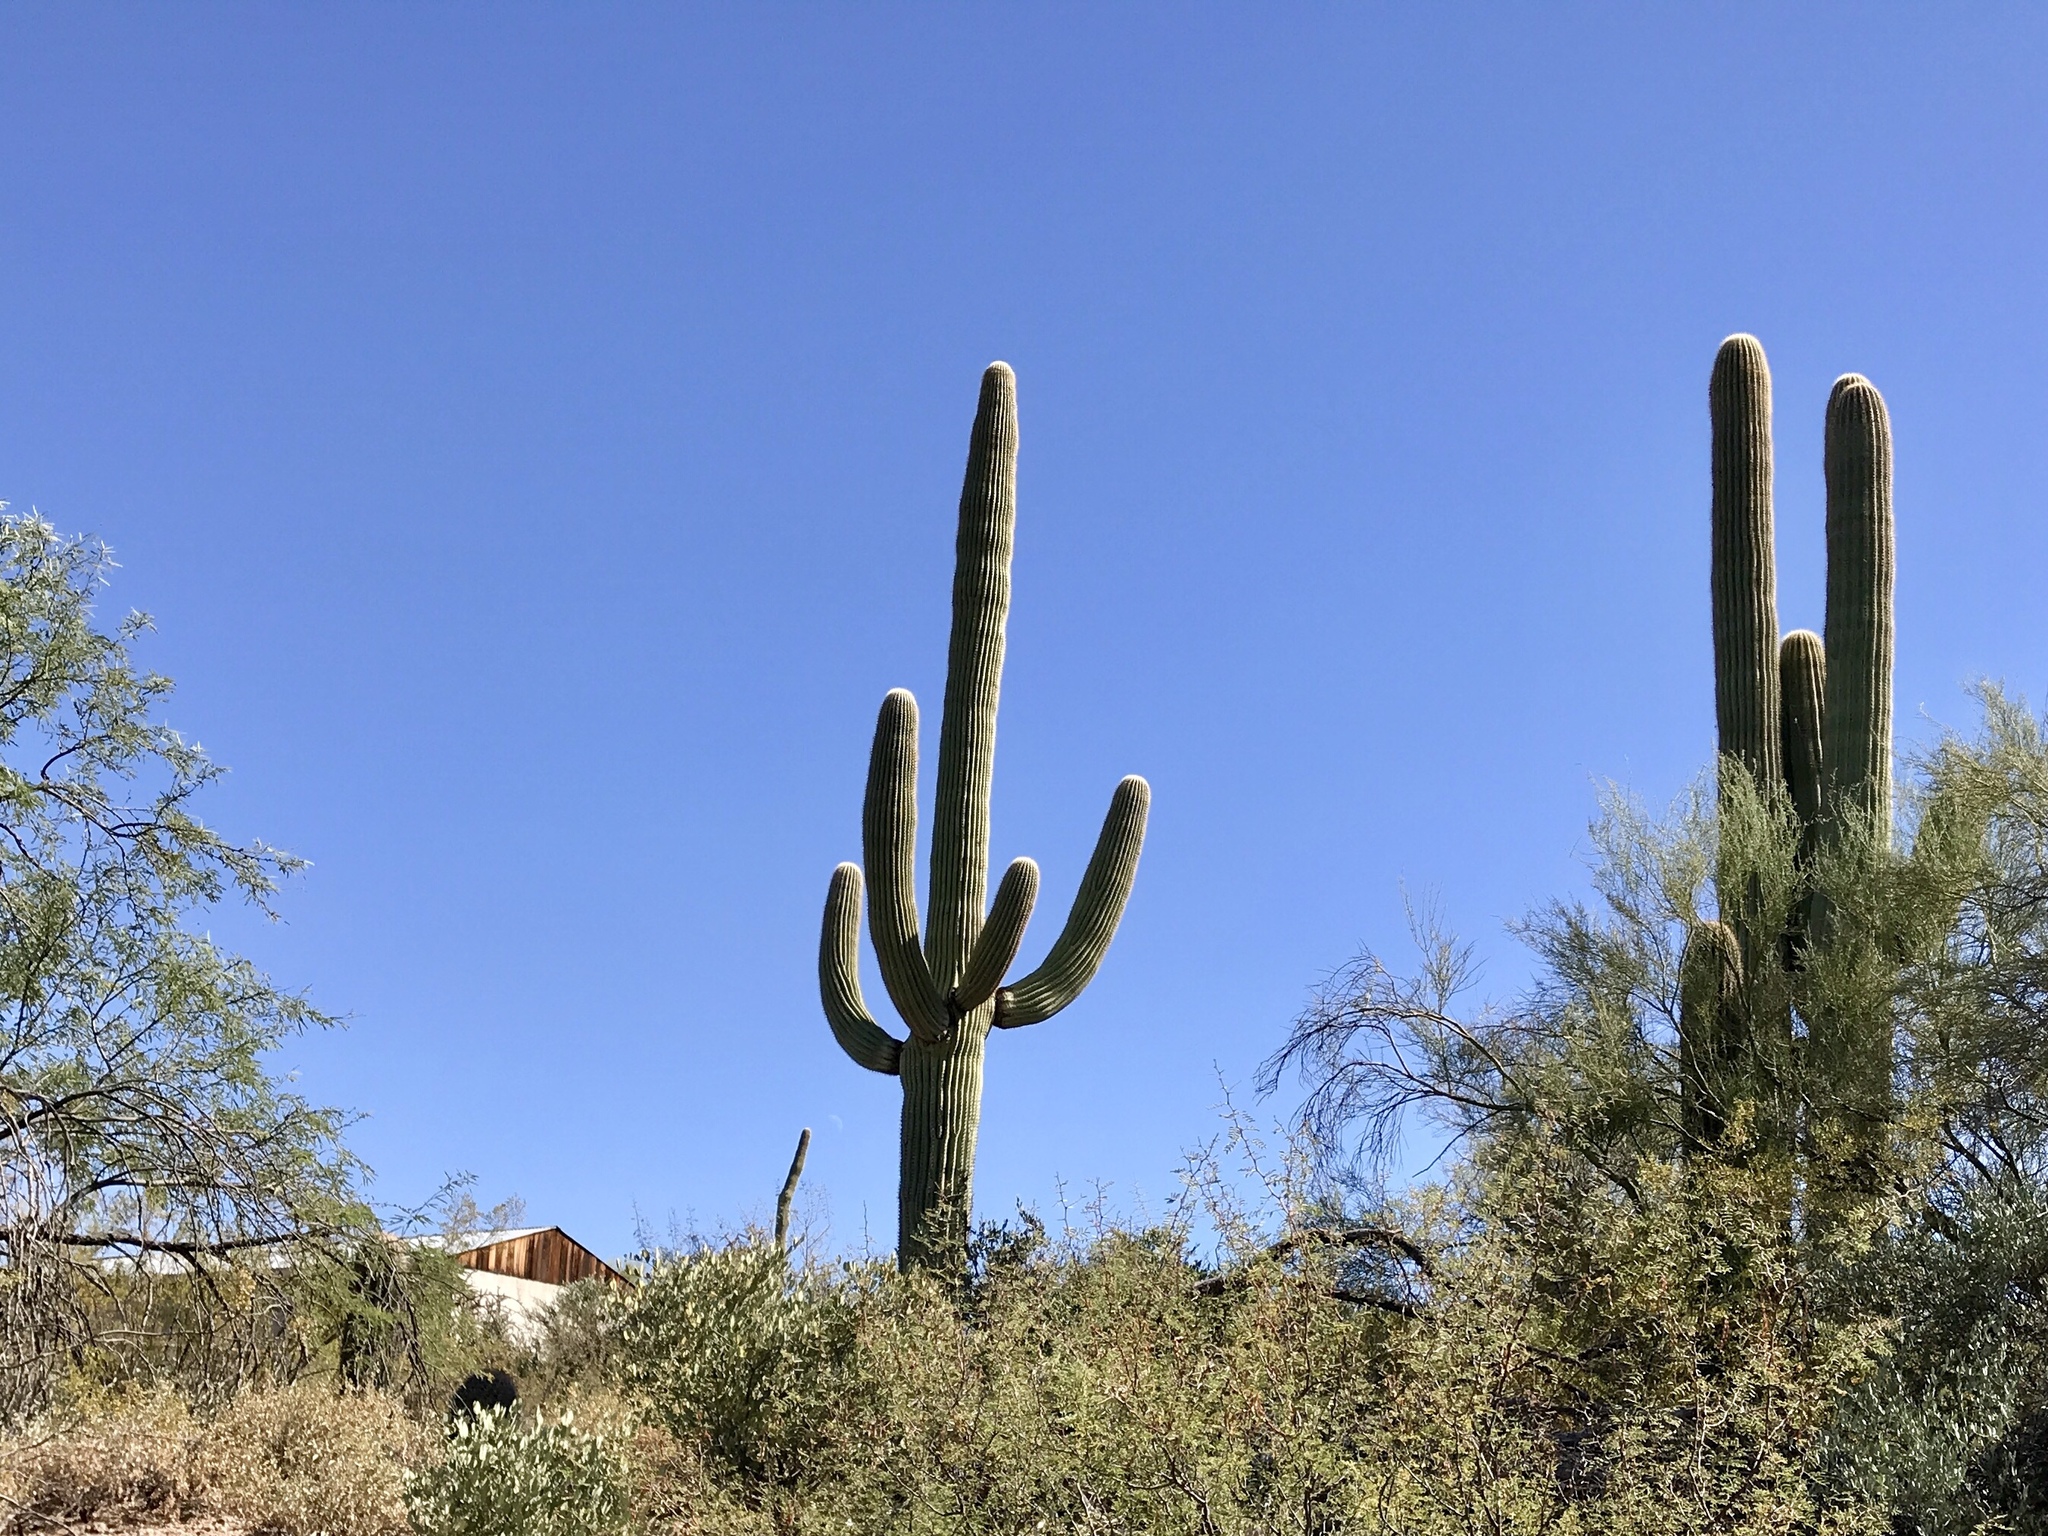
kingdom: Plantae
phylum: Tracheophyta
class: Magnoliopsida
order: Caryophyllales
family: Cactaceae
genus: Carnegiea
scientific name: Carnegiea gigantea
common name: Saguaro
